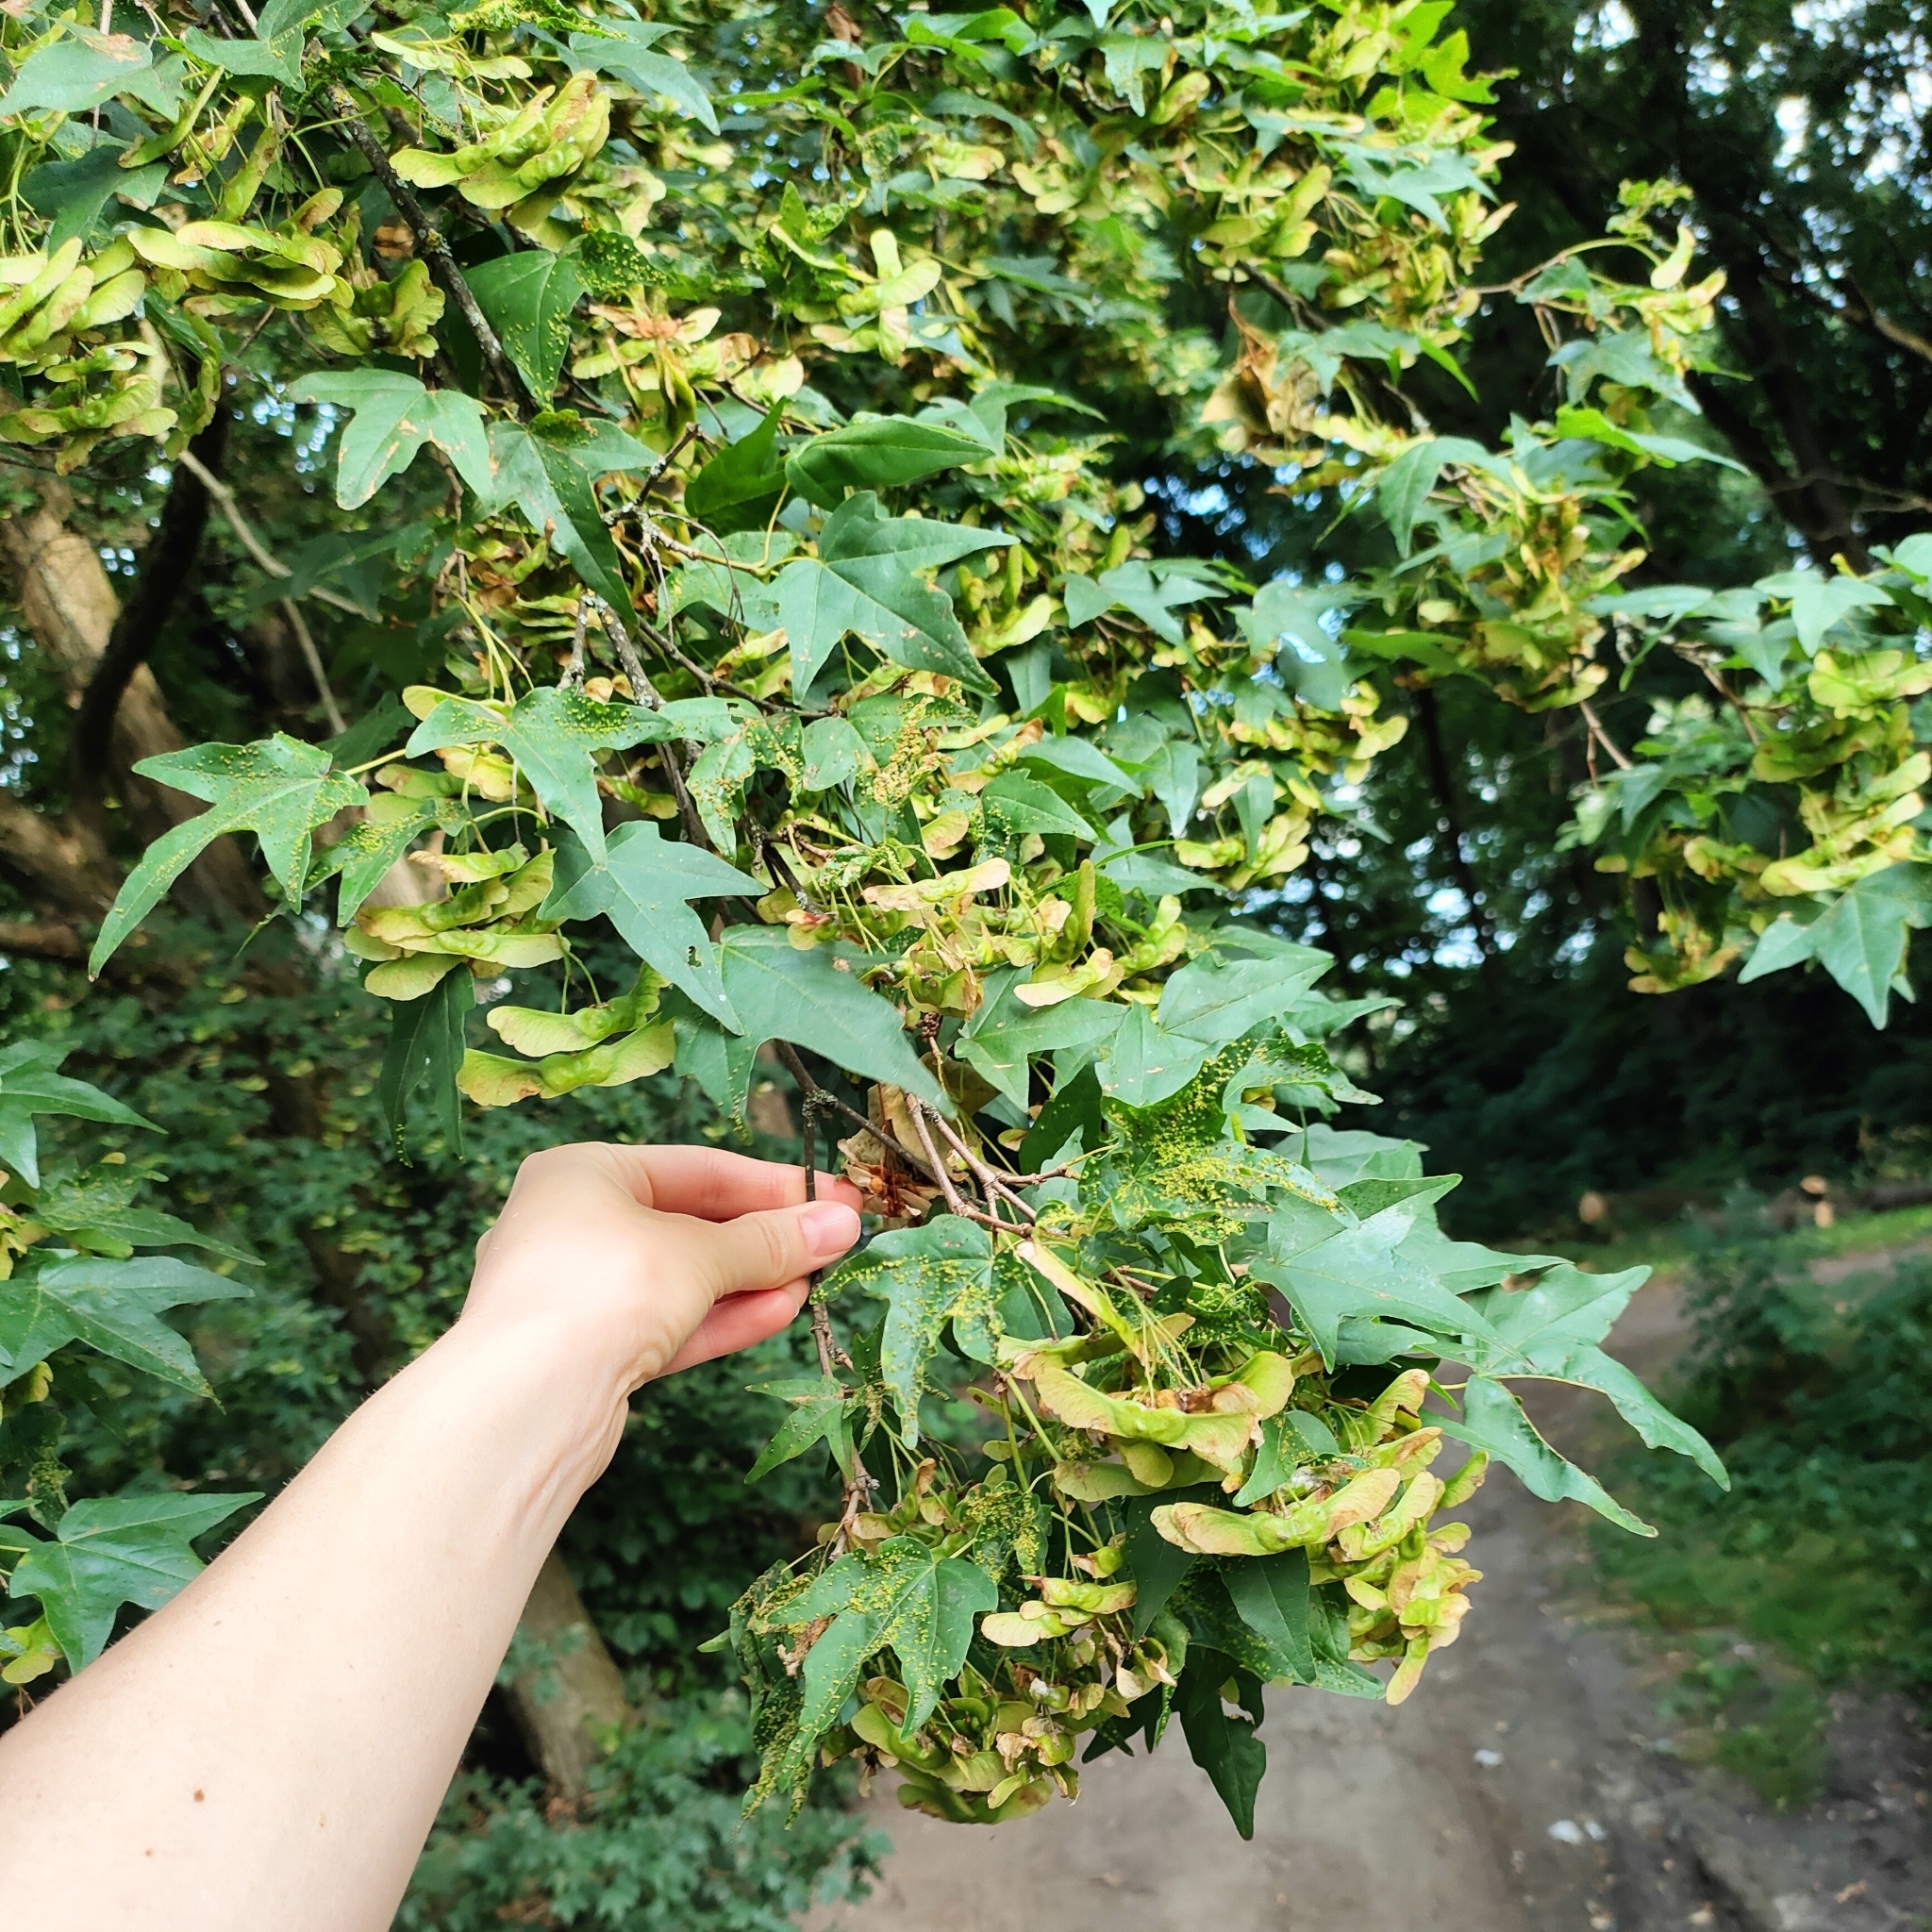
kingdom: Plantae
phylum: Tracheophyta
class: Magnoliopsida
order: Sapindales
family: Sapindaceae
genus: Acer
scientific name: Acer campestre
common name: Field maple
